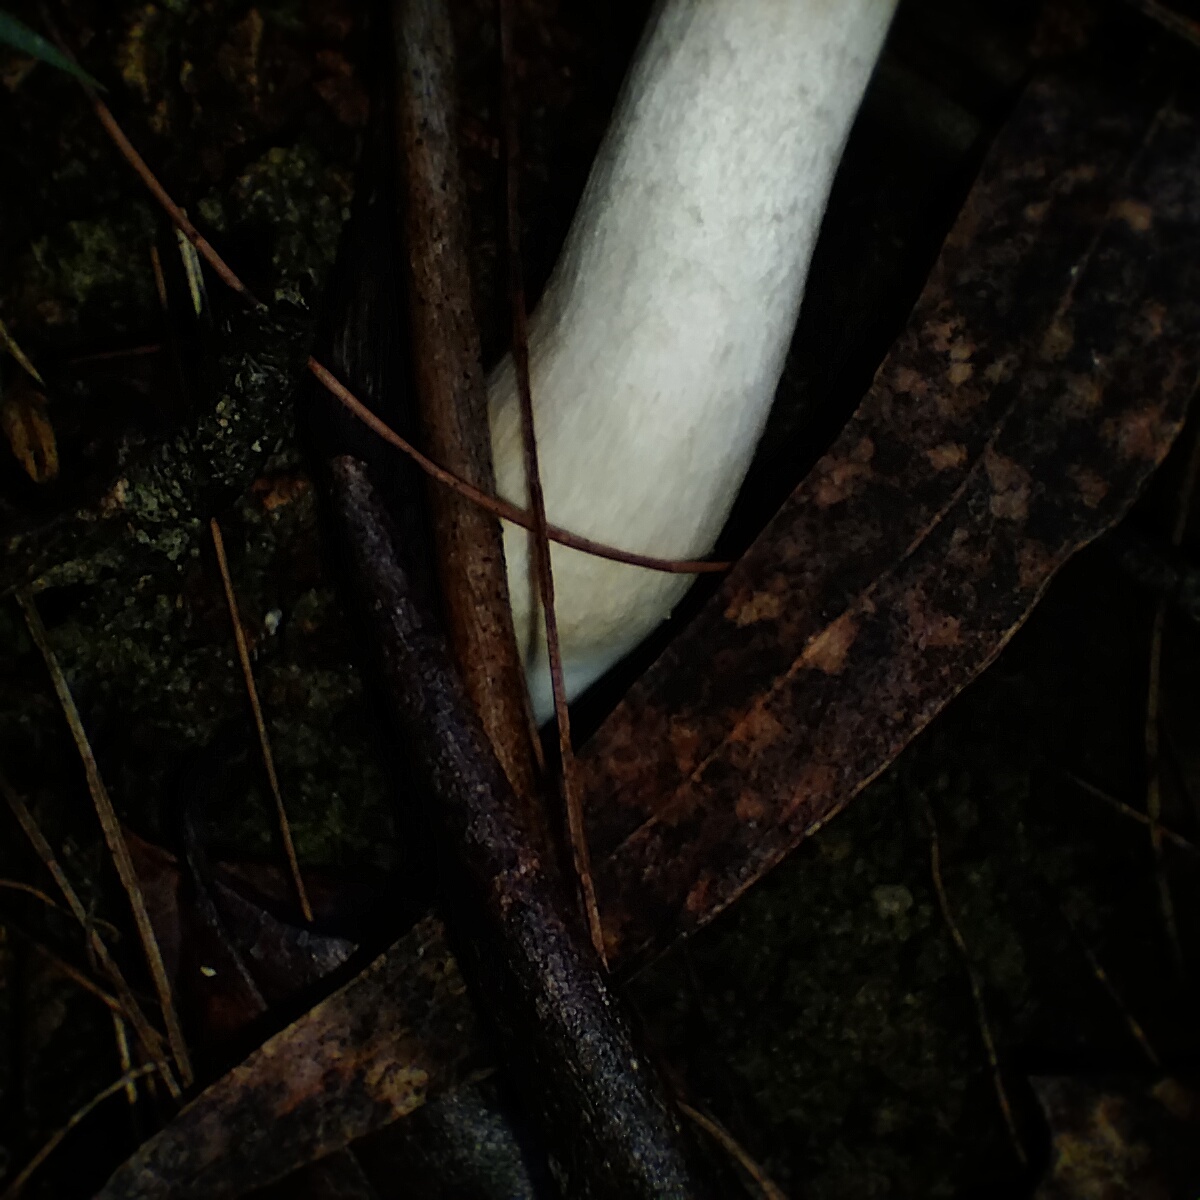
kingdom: Fungi
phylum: Basidiomycota
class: Agaricomycetes
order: Boletales
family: Boletaceae
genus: Boletellus
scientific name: Boletellus dissiliens
